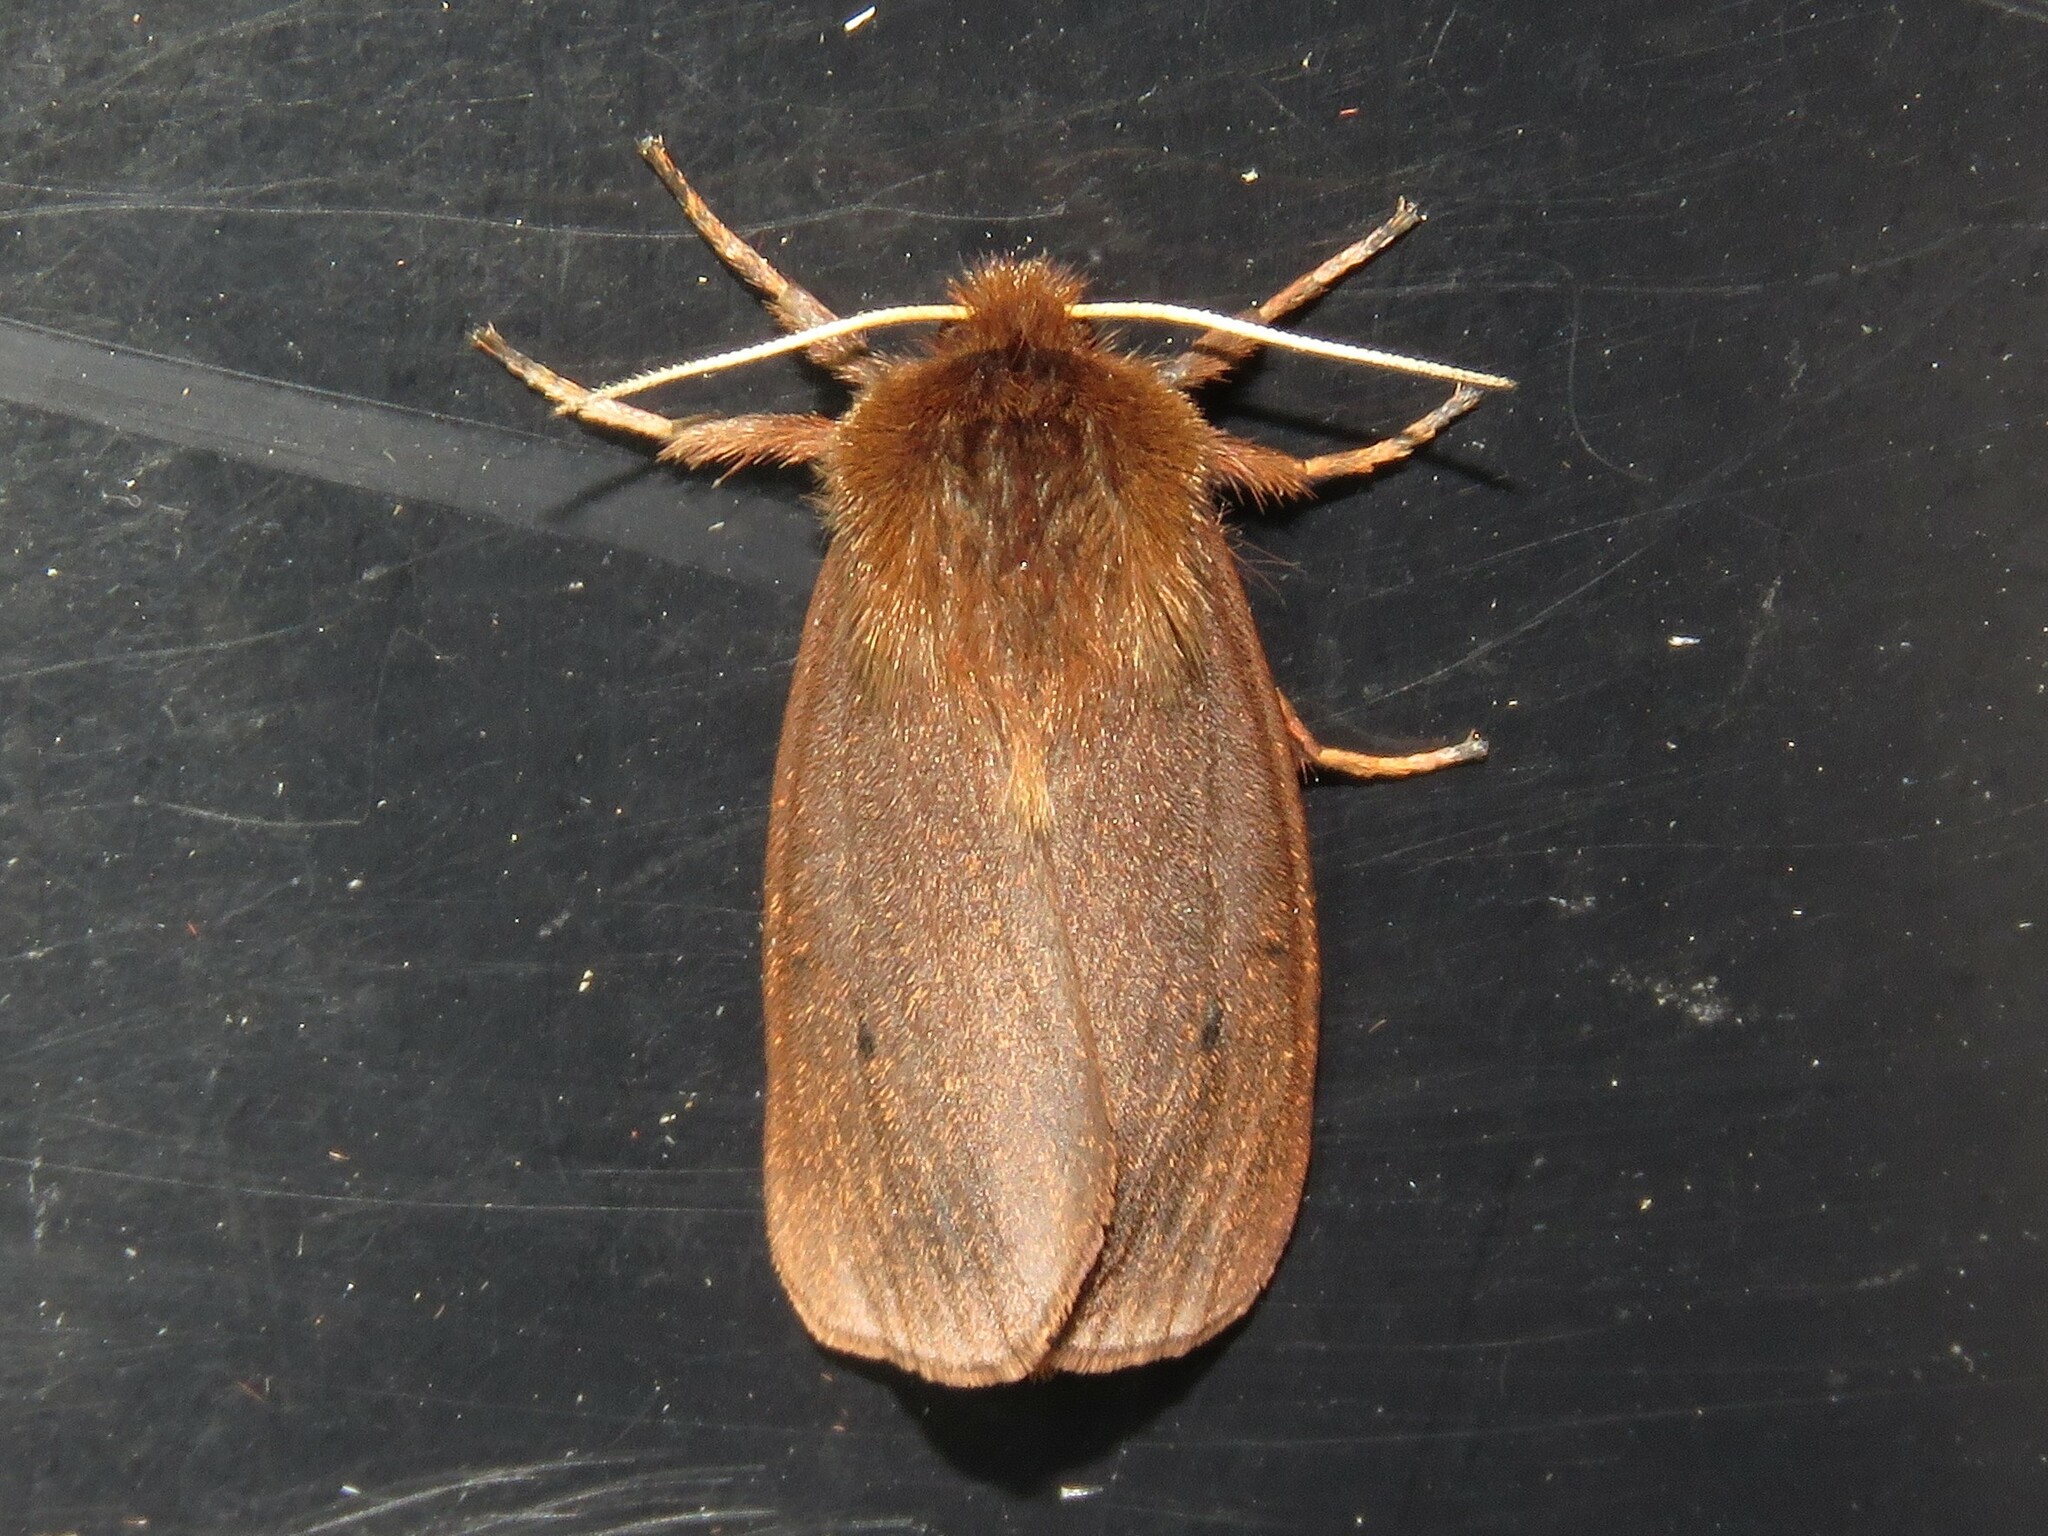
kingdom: Animalia
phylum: Arthropoda
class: Insecta
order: Lepidoptera
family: Erebidae
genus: Phragmatobia
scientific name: Phragmatobia fuliginosa
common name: Ruby tiger
